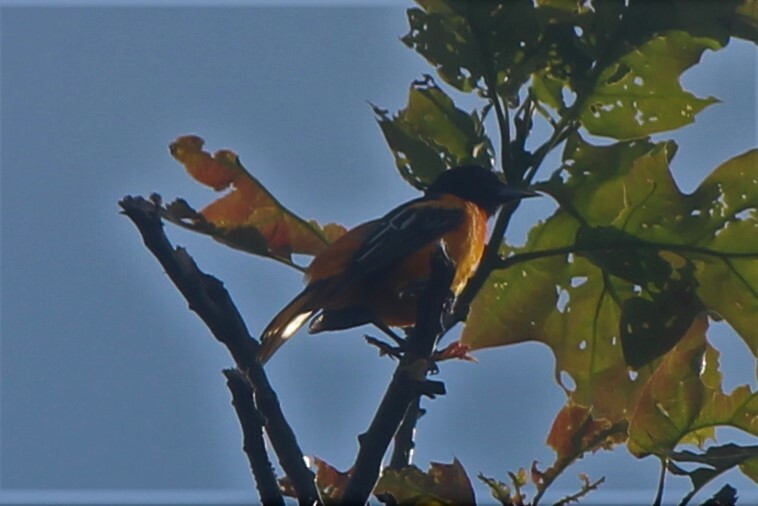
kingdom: Animalia
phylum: Chordata
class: Aves
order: Passeriformes
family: Icteridae
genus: Icterus
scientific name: Icterus galbula
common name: Baltimore oriole
